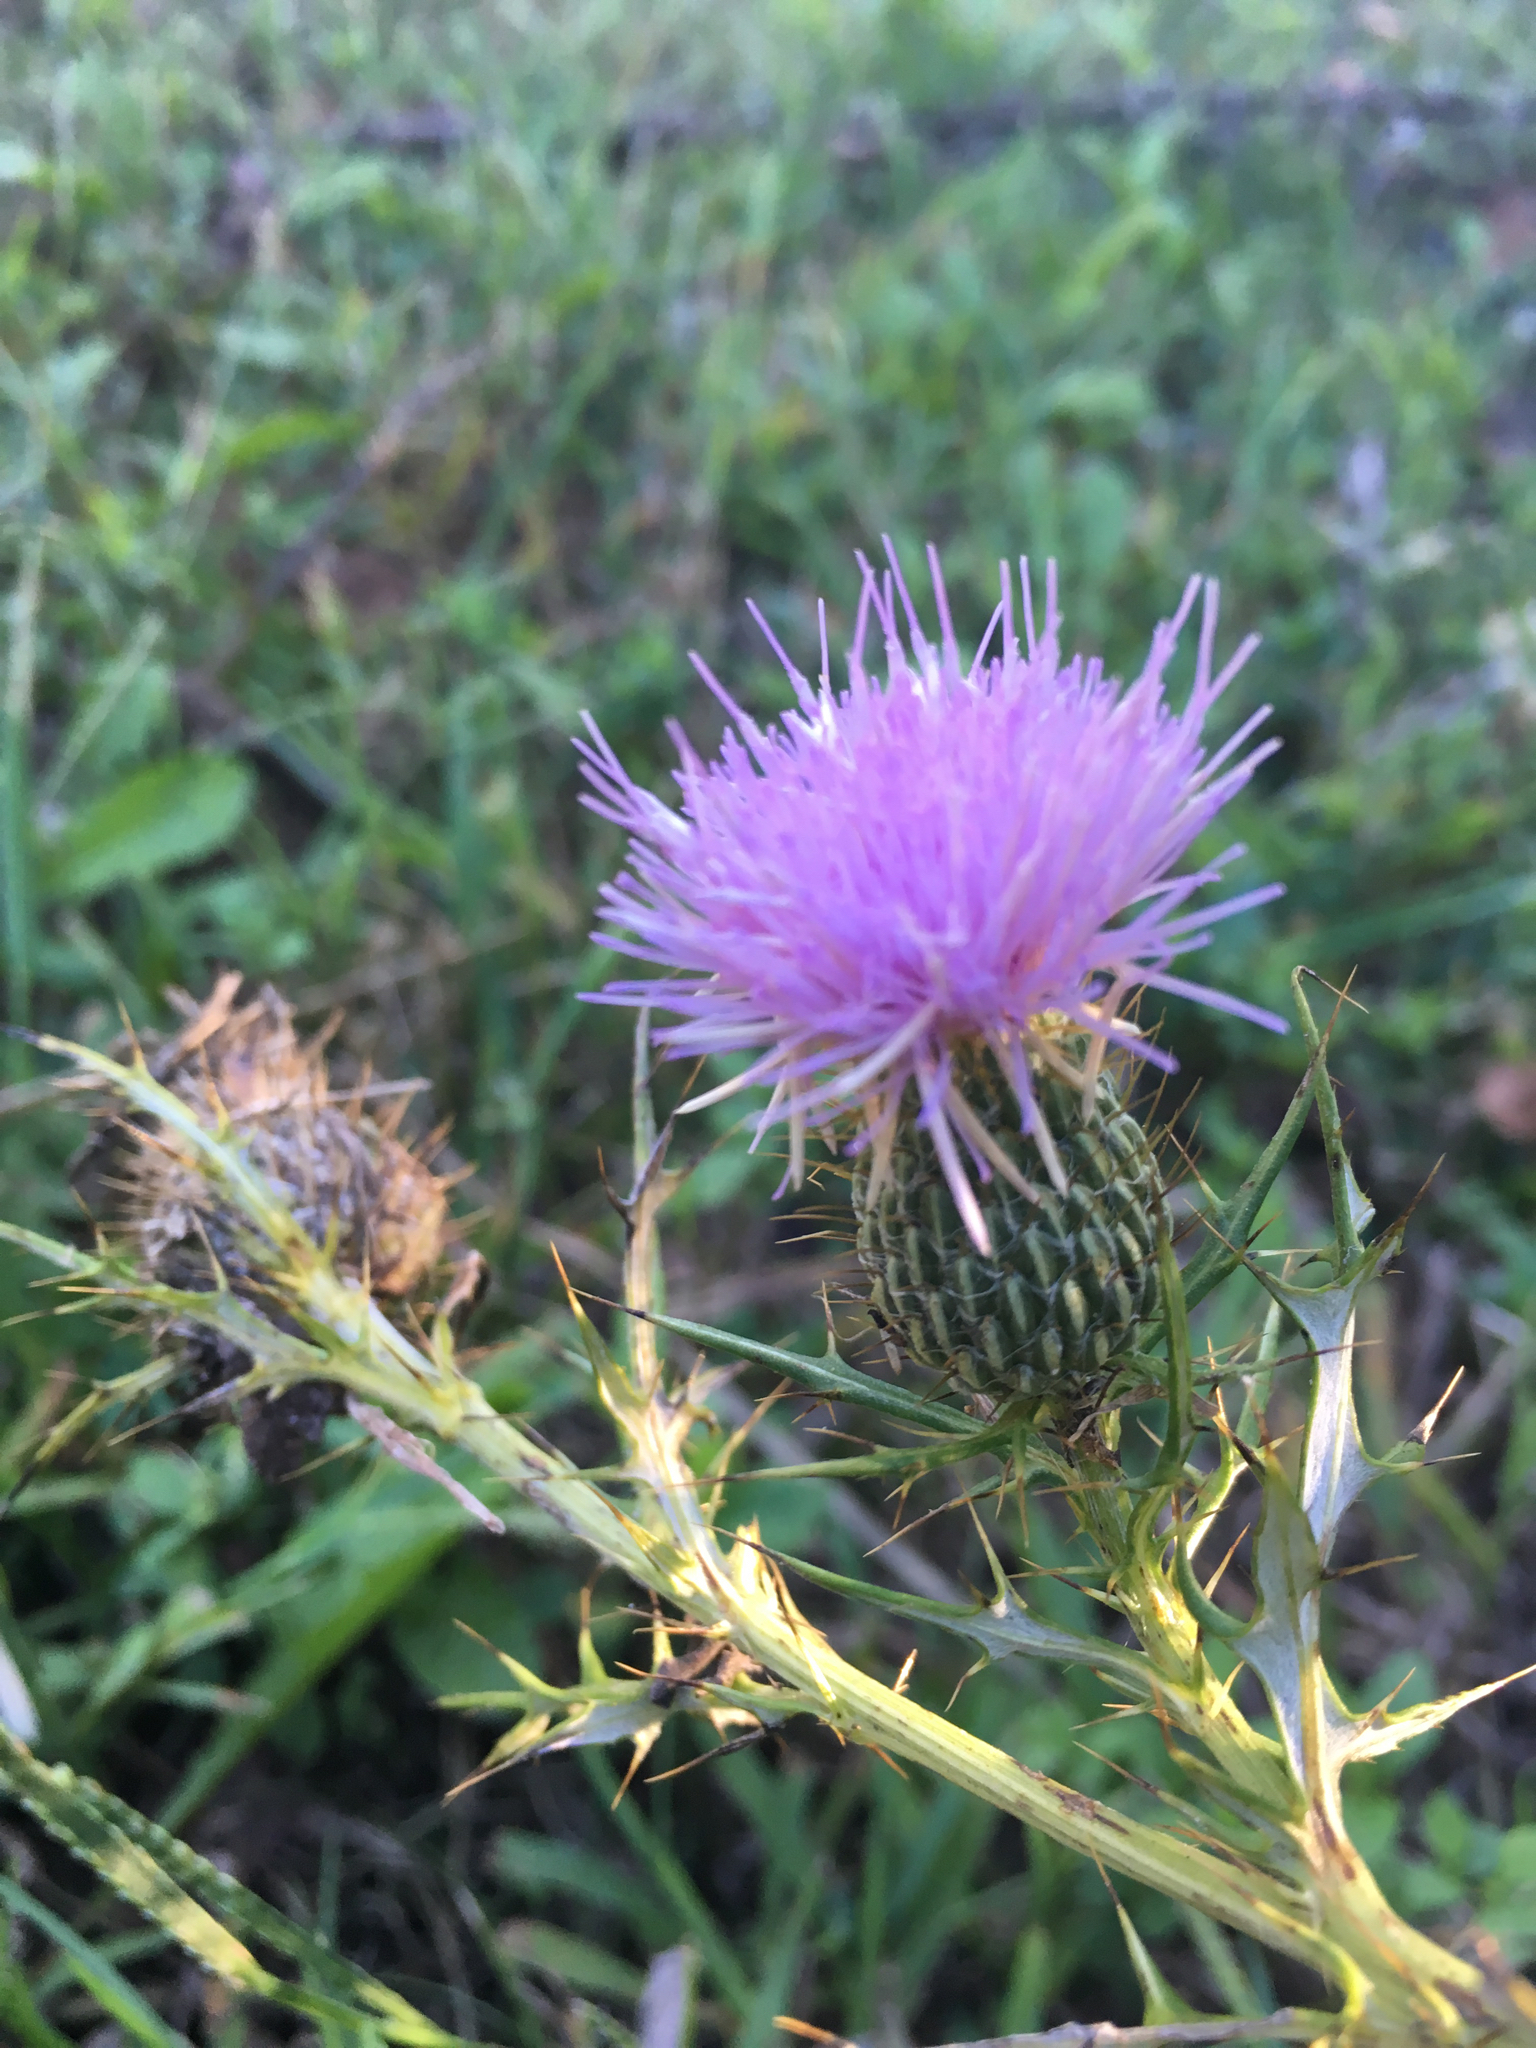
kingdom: Plantae
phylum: Tracheophyta
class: Magnoliopsida
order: Asterales
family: Asteraceae
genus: Cirsium
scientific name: Cirsium discolor
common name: Field thistle
